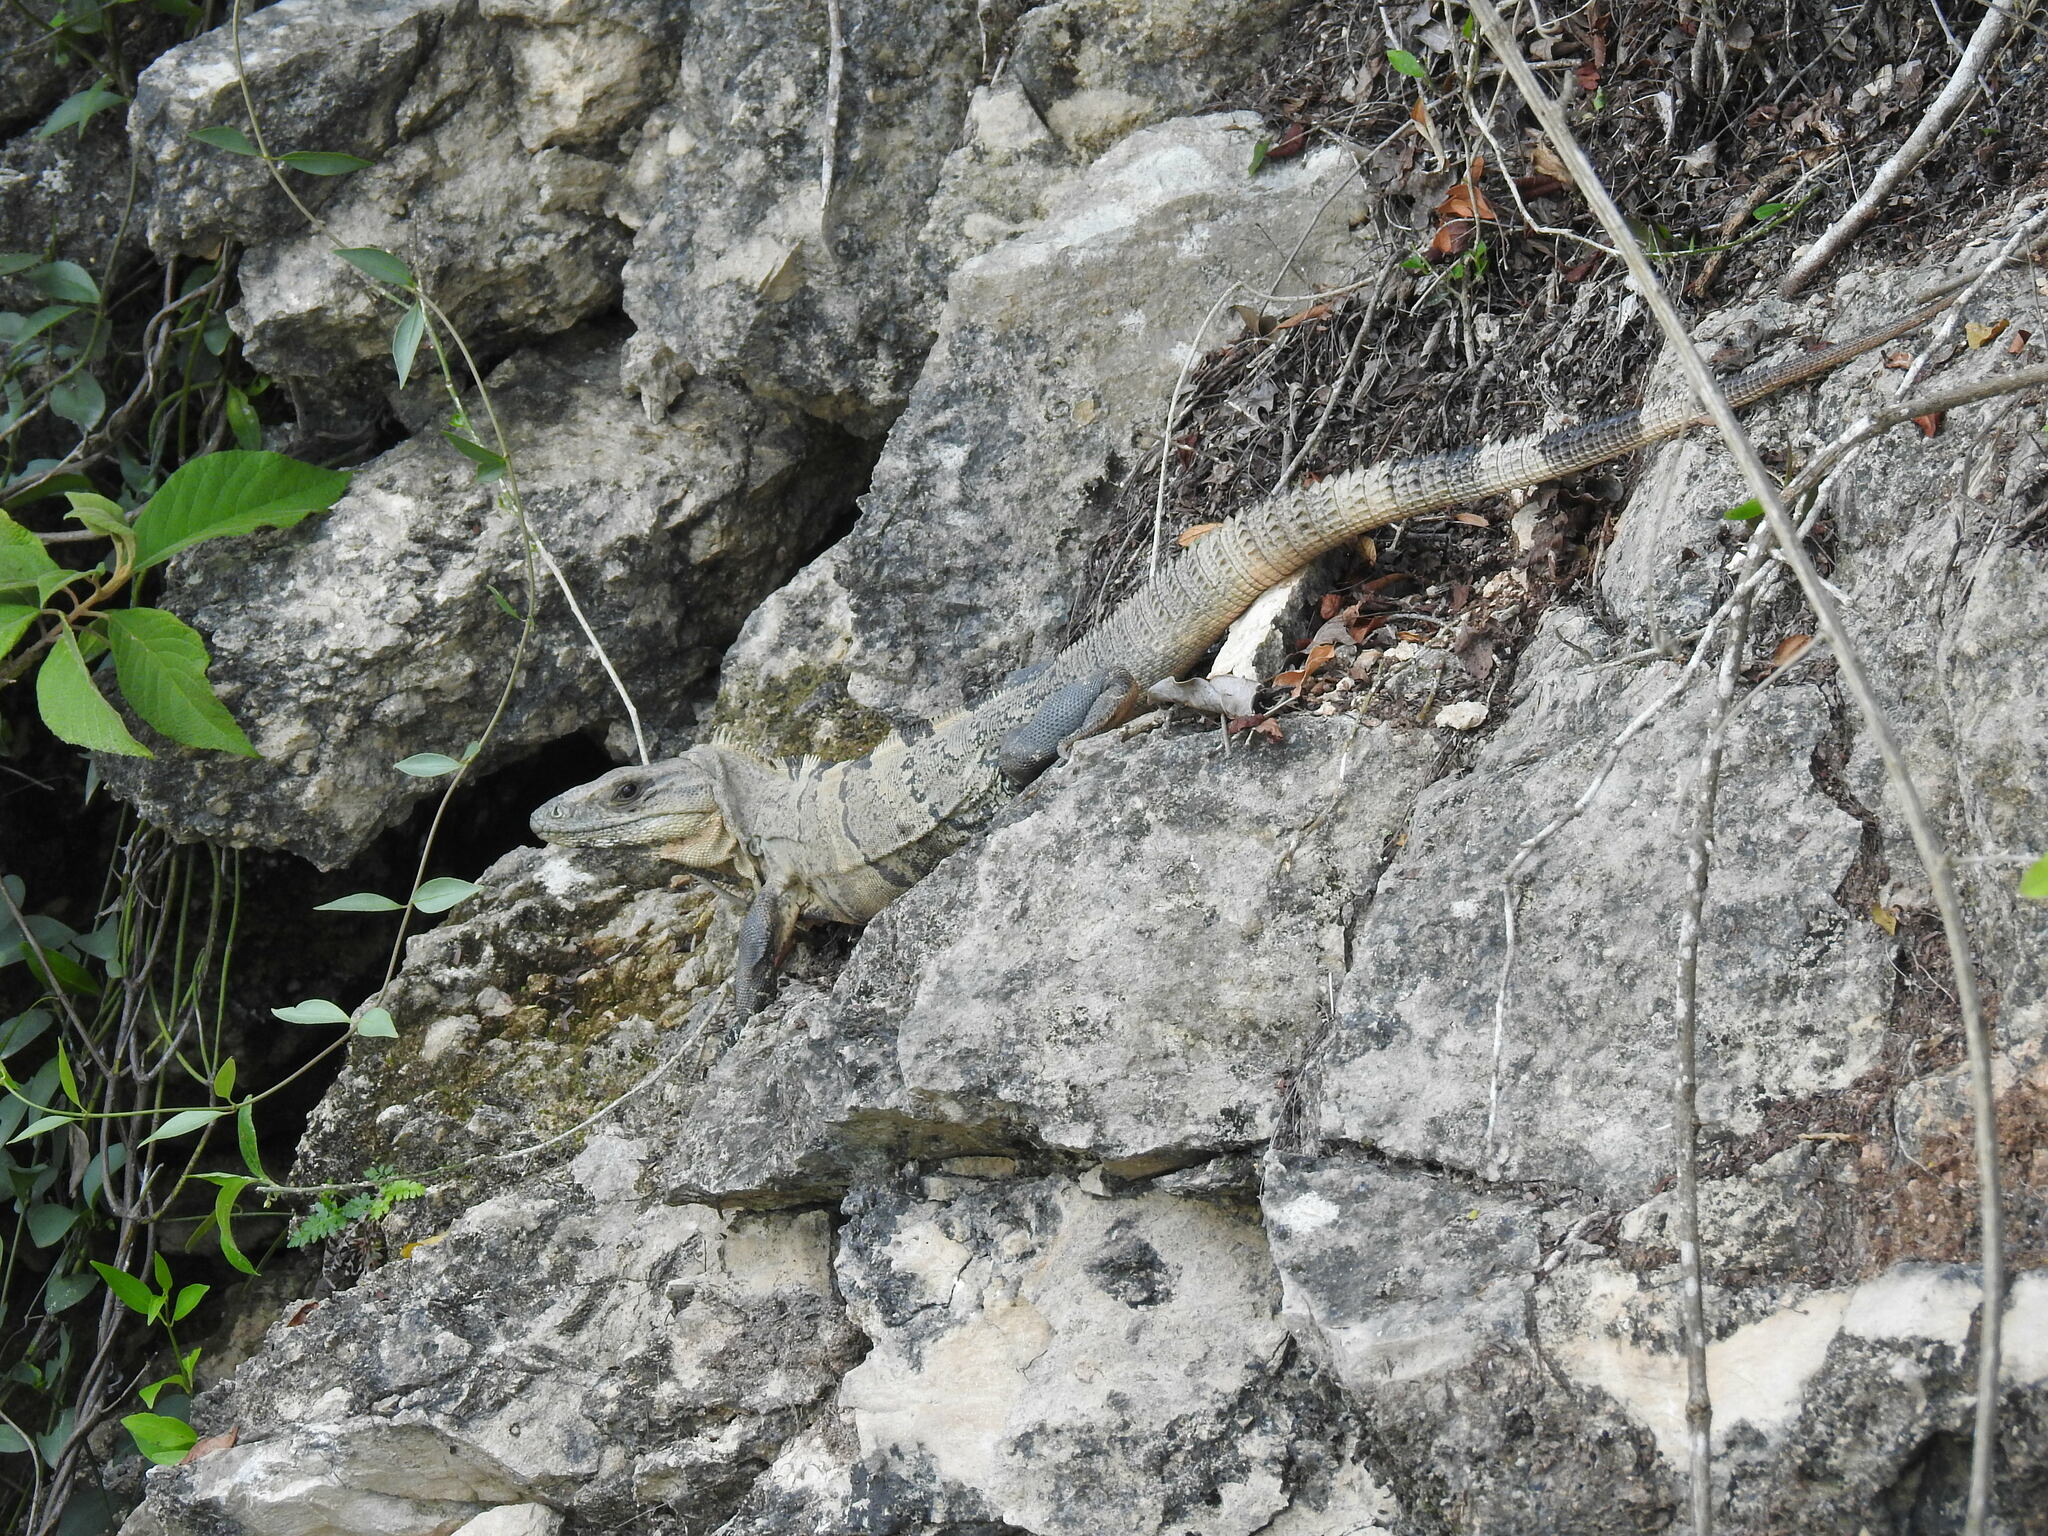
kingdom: Animalia
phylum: Chordata
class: Squamata
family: Iguanidae
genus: Ctenosaura
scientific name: Ctenosaura similis
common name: Black spiny-tailed iguana
